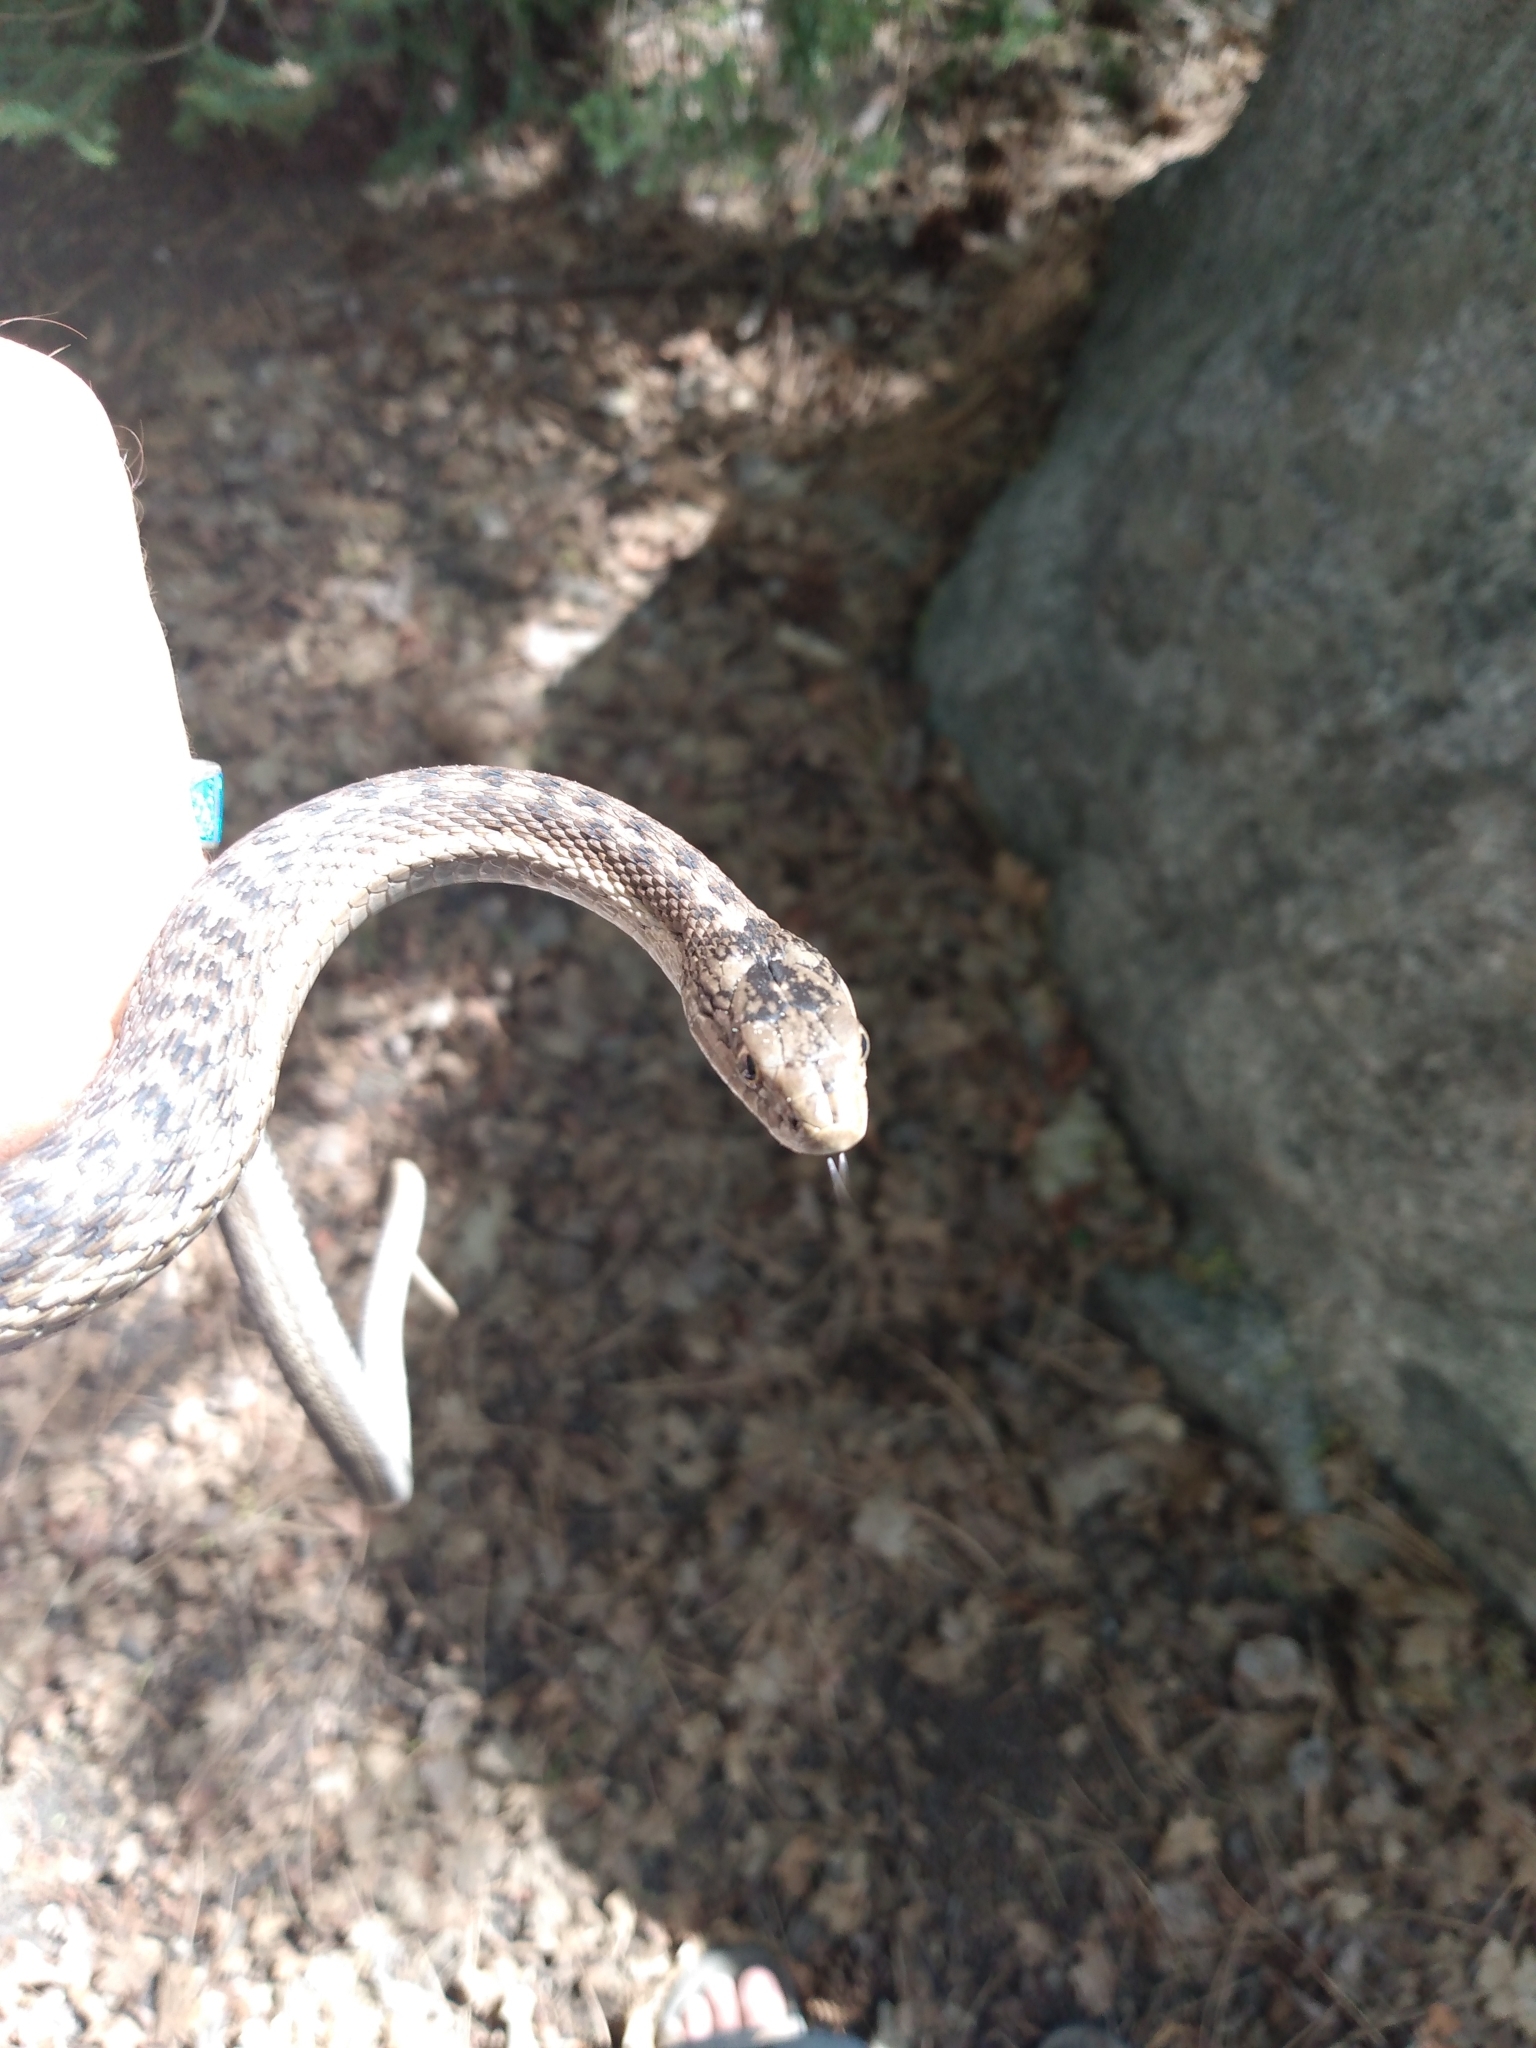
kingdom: Animalia
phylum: Chordata
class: Squamata
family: Colubridae
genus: Thamnophis
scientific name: Thamnophis elegans
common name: Western terrestrial garter snake
